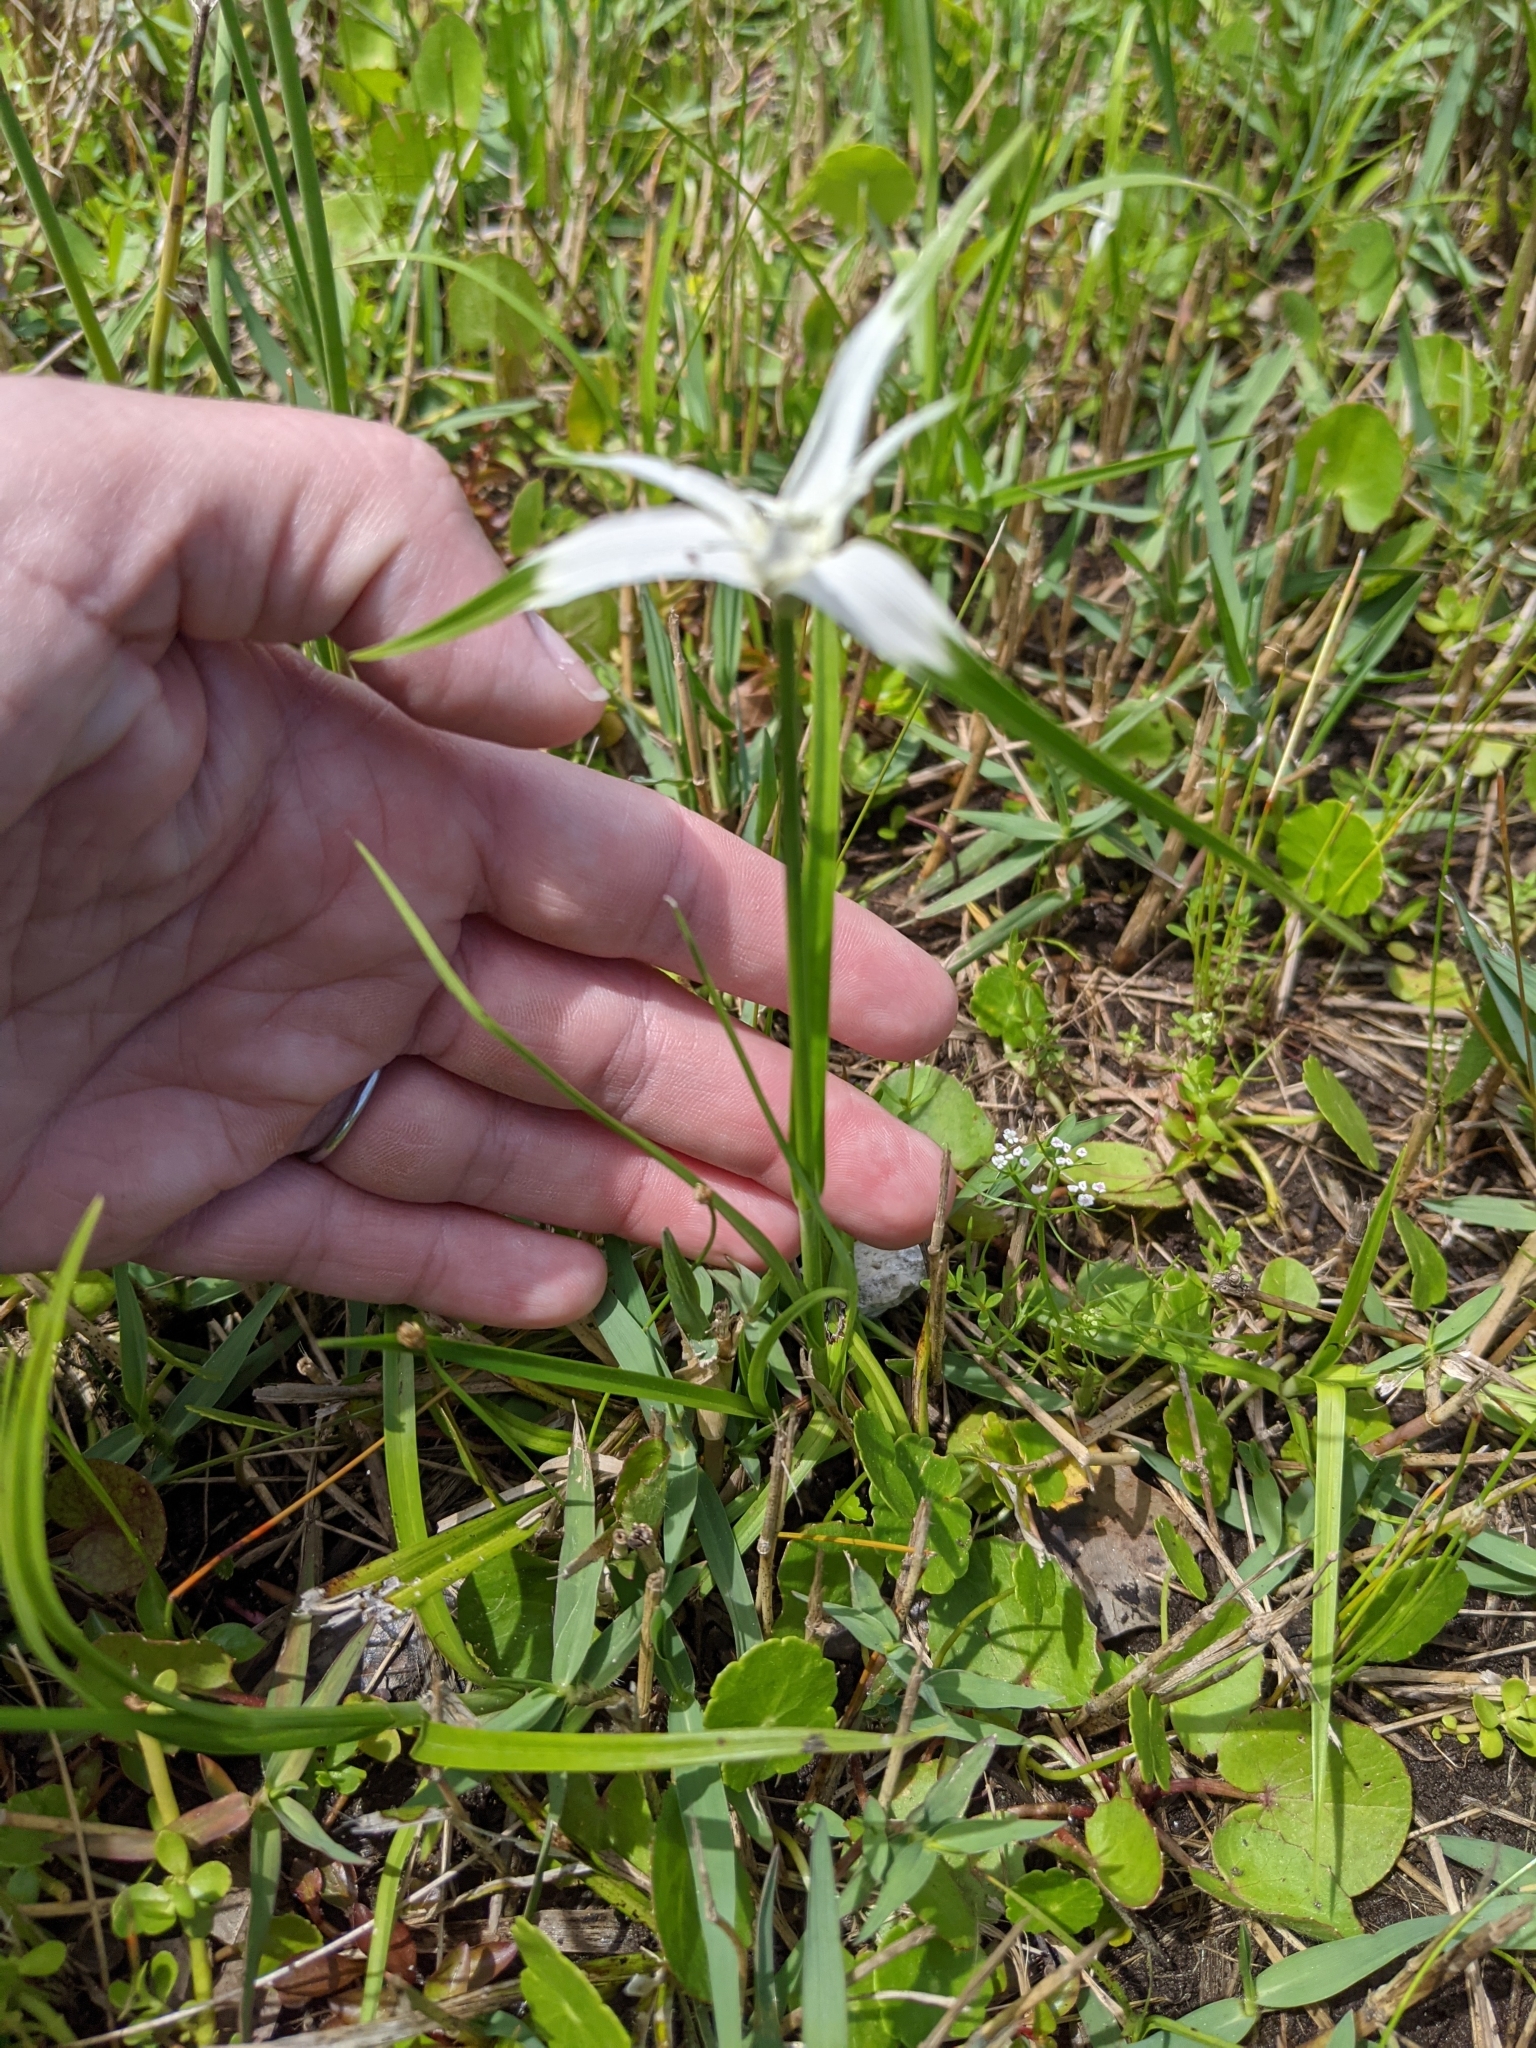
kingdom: Plantae
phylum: Tracheophyta
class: Liliopsida
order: Poales
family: Cyperaceae
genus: Rhynchospora
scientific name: Rhynchospora colorata
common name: Star sedge
